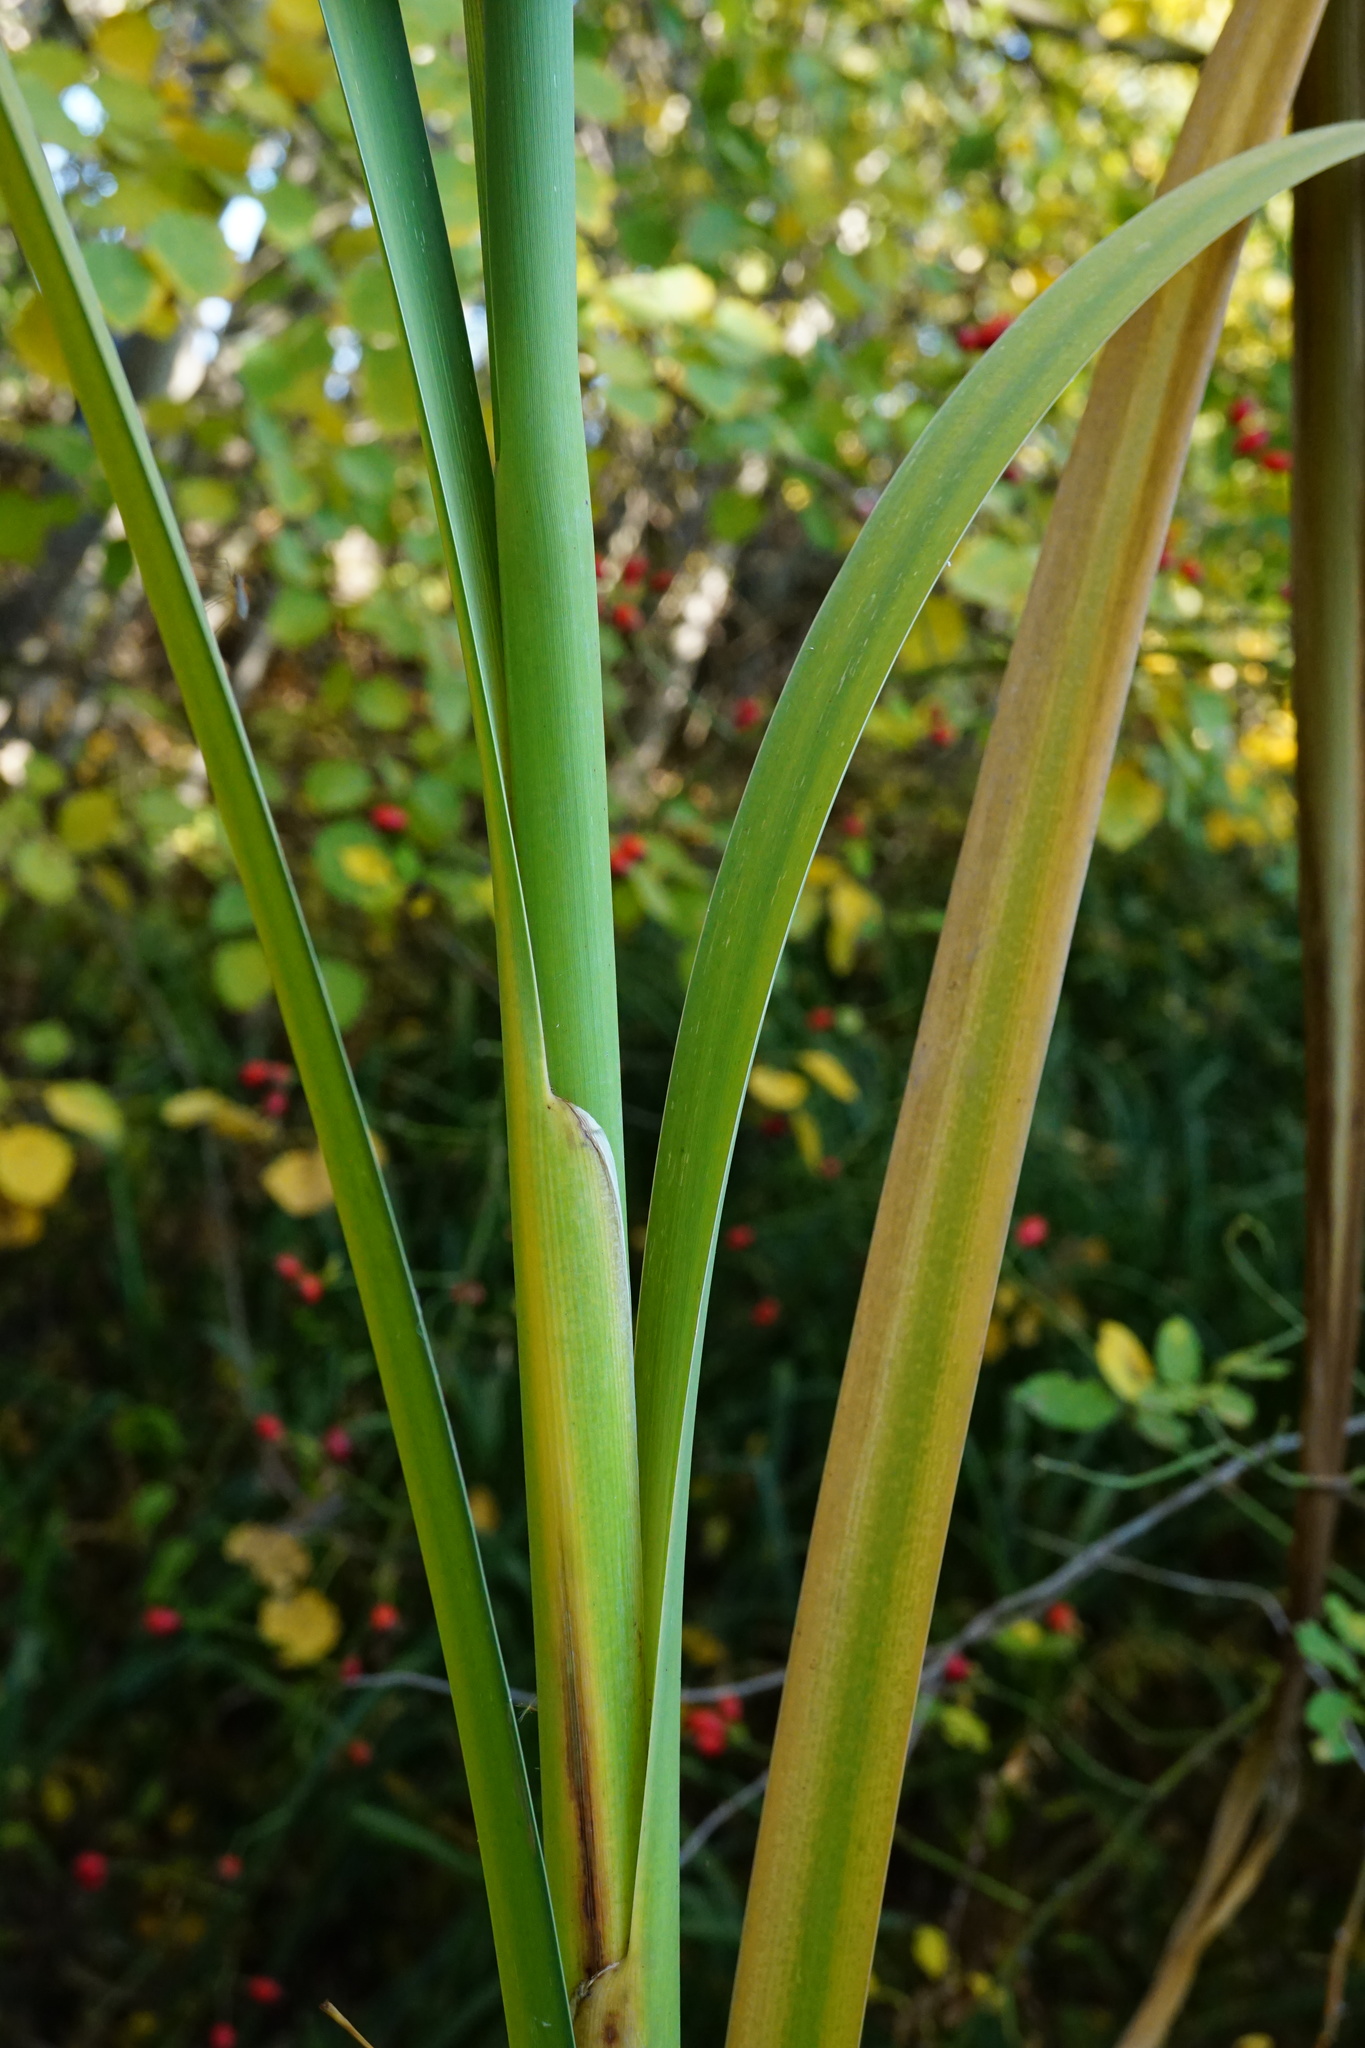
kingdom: Plantae
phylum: Tracheophyta
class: Liliopsida
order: Poales
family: Typhaceae
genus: Typha
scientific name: Typha latifolia
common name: Broadleaf cattail
